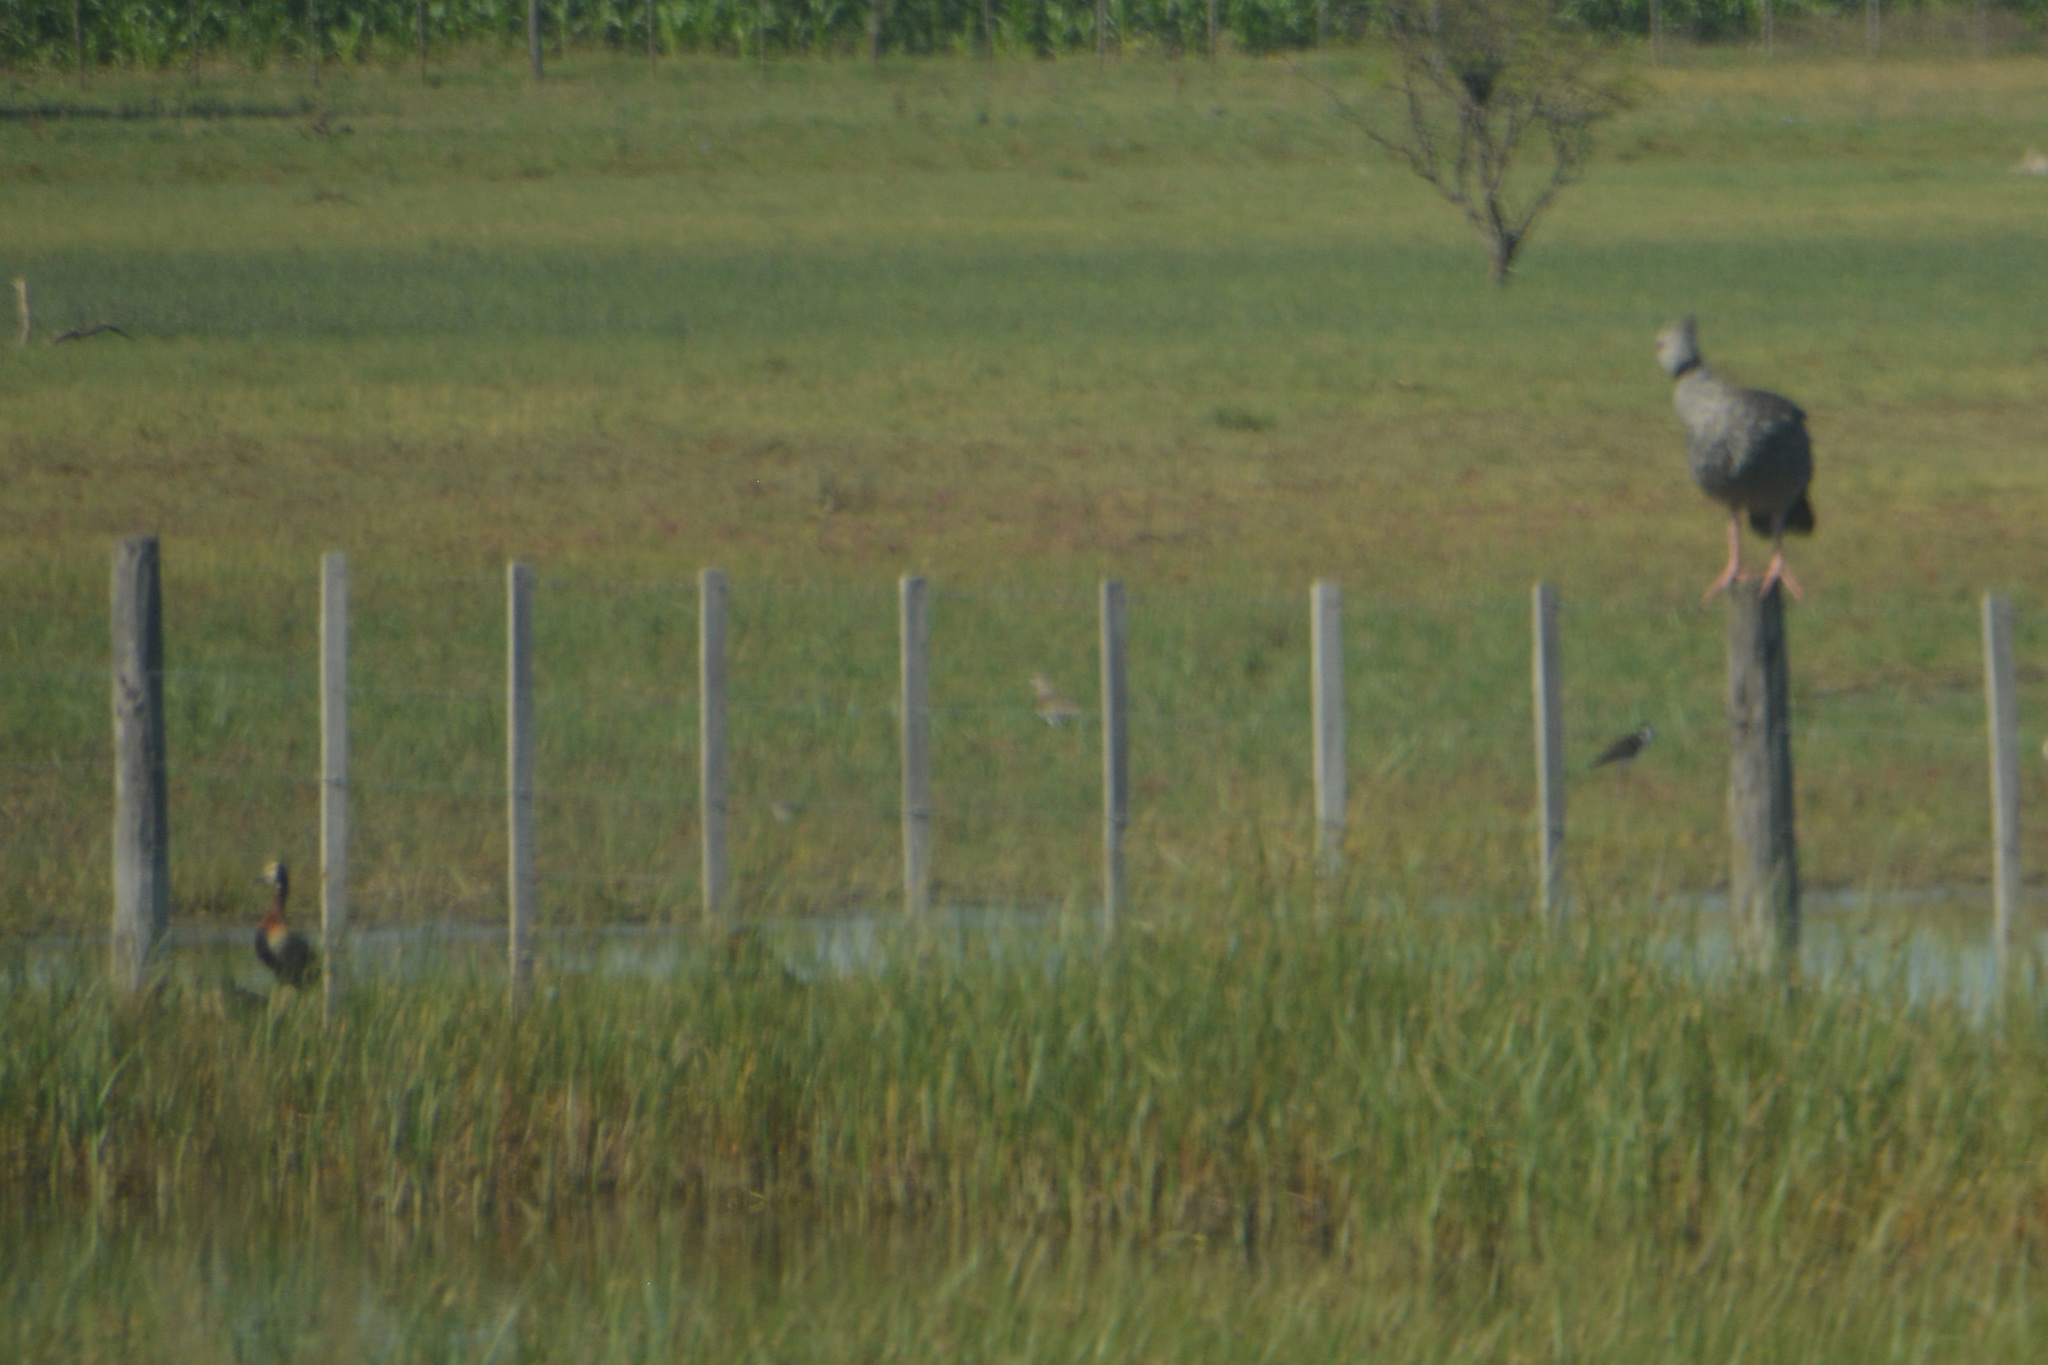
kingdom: Animalia
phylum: Chordata
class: Aves
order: Anseriformes
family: Anatidae
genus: Dendrocygna
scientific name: Dendrocygna viduata
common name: White-faced whistling duck
